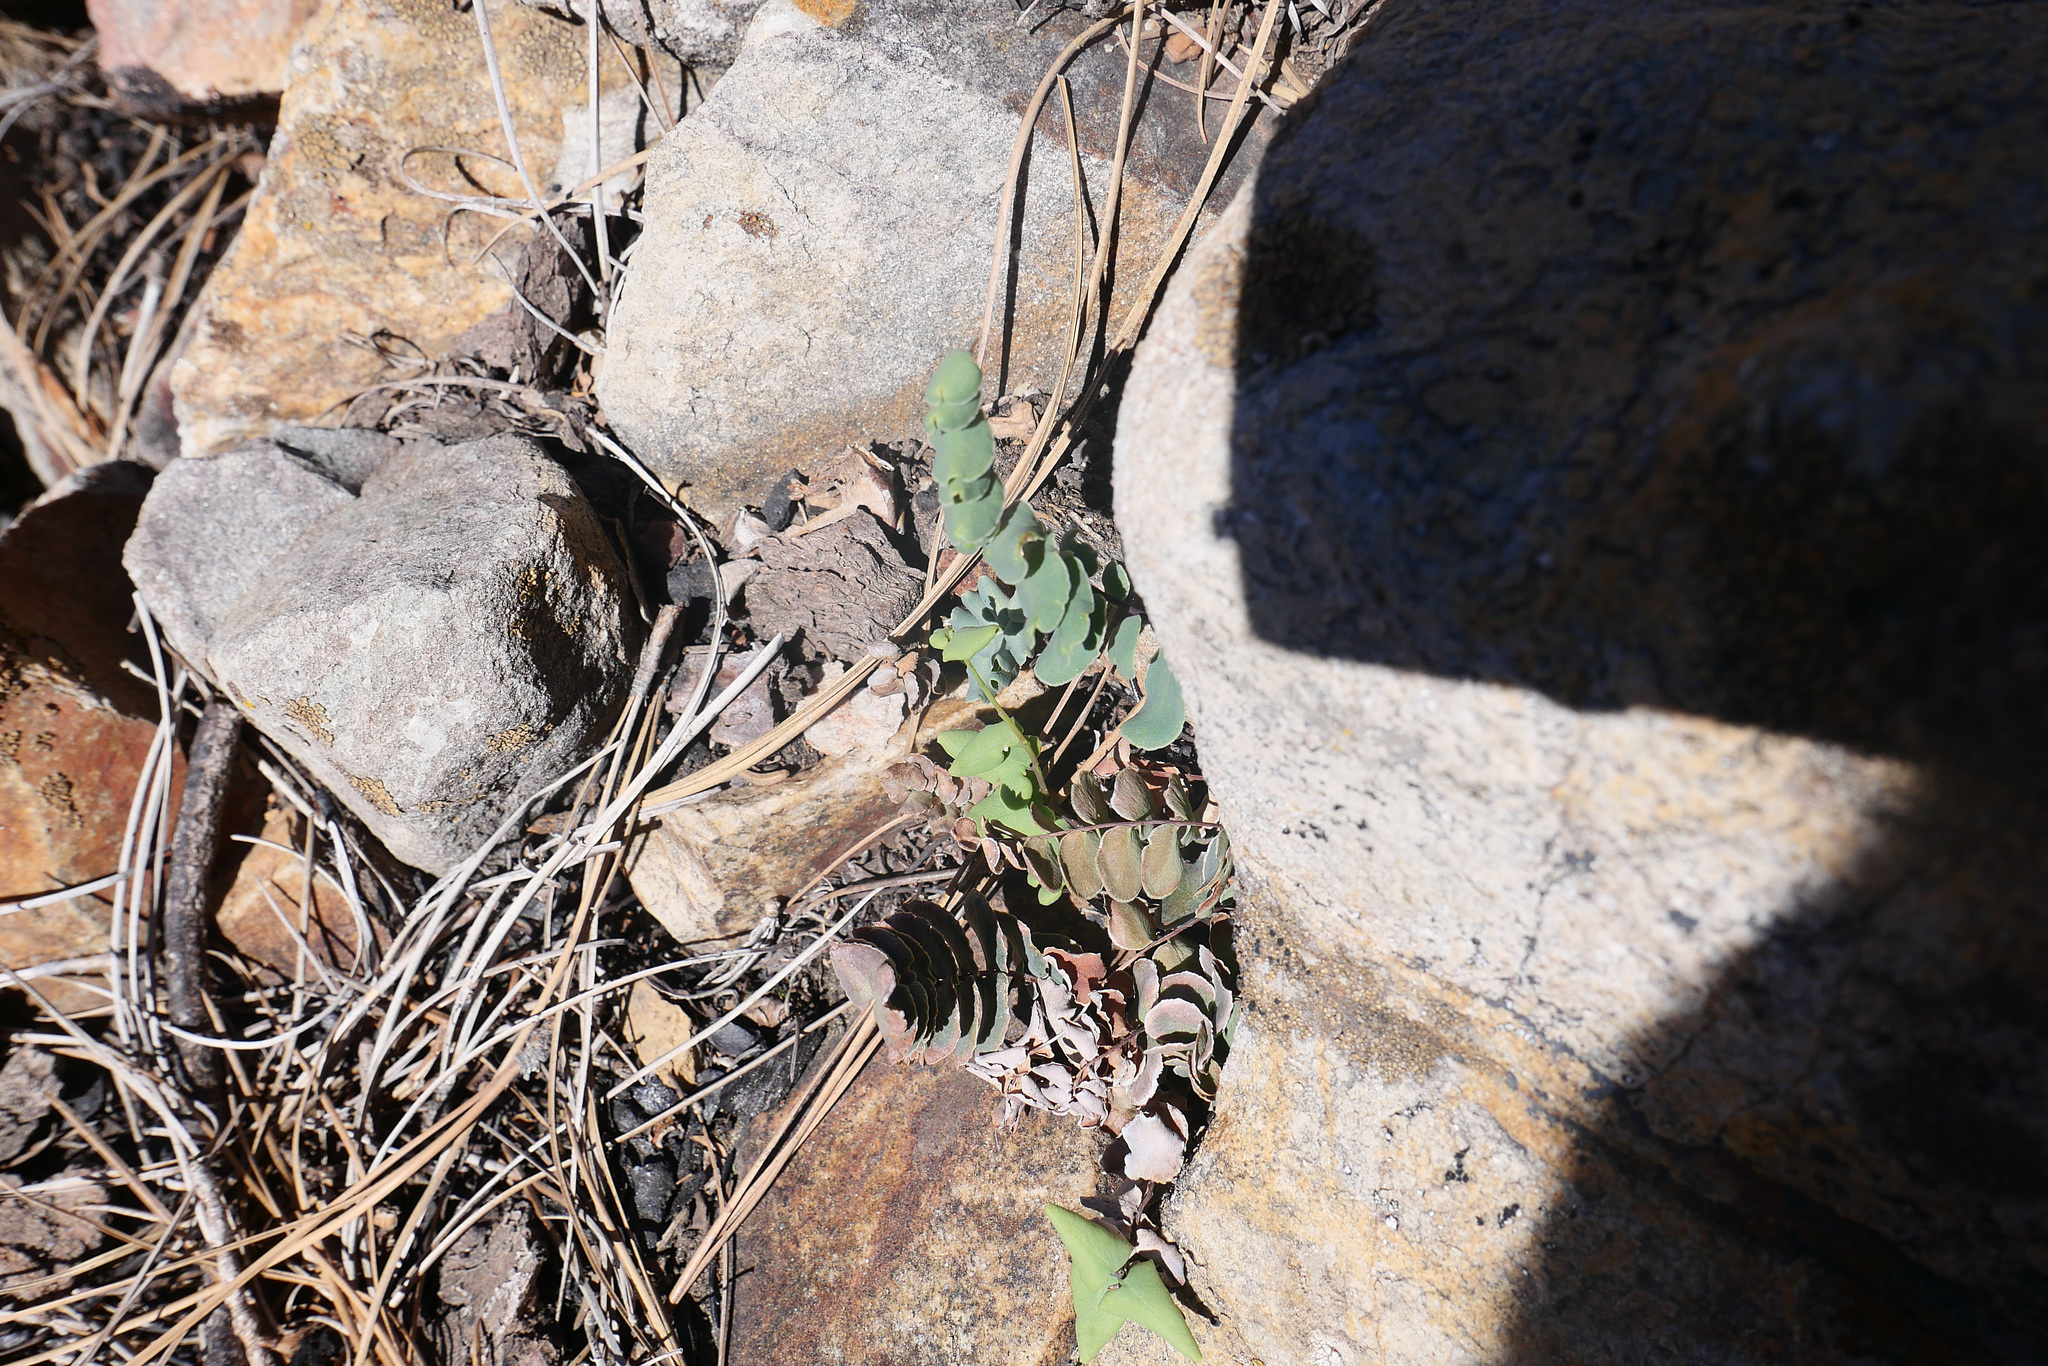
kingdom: Plantae
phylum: Tracheophyta
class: Polypodiopsida
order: Polypodiales
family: Pteridaceae
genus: Pellaea
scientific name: Pellaea bridgesii
